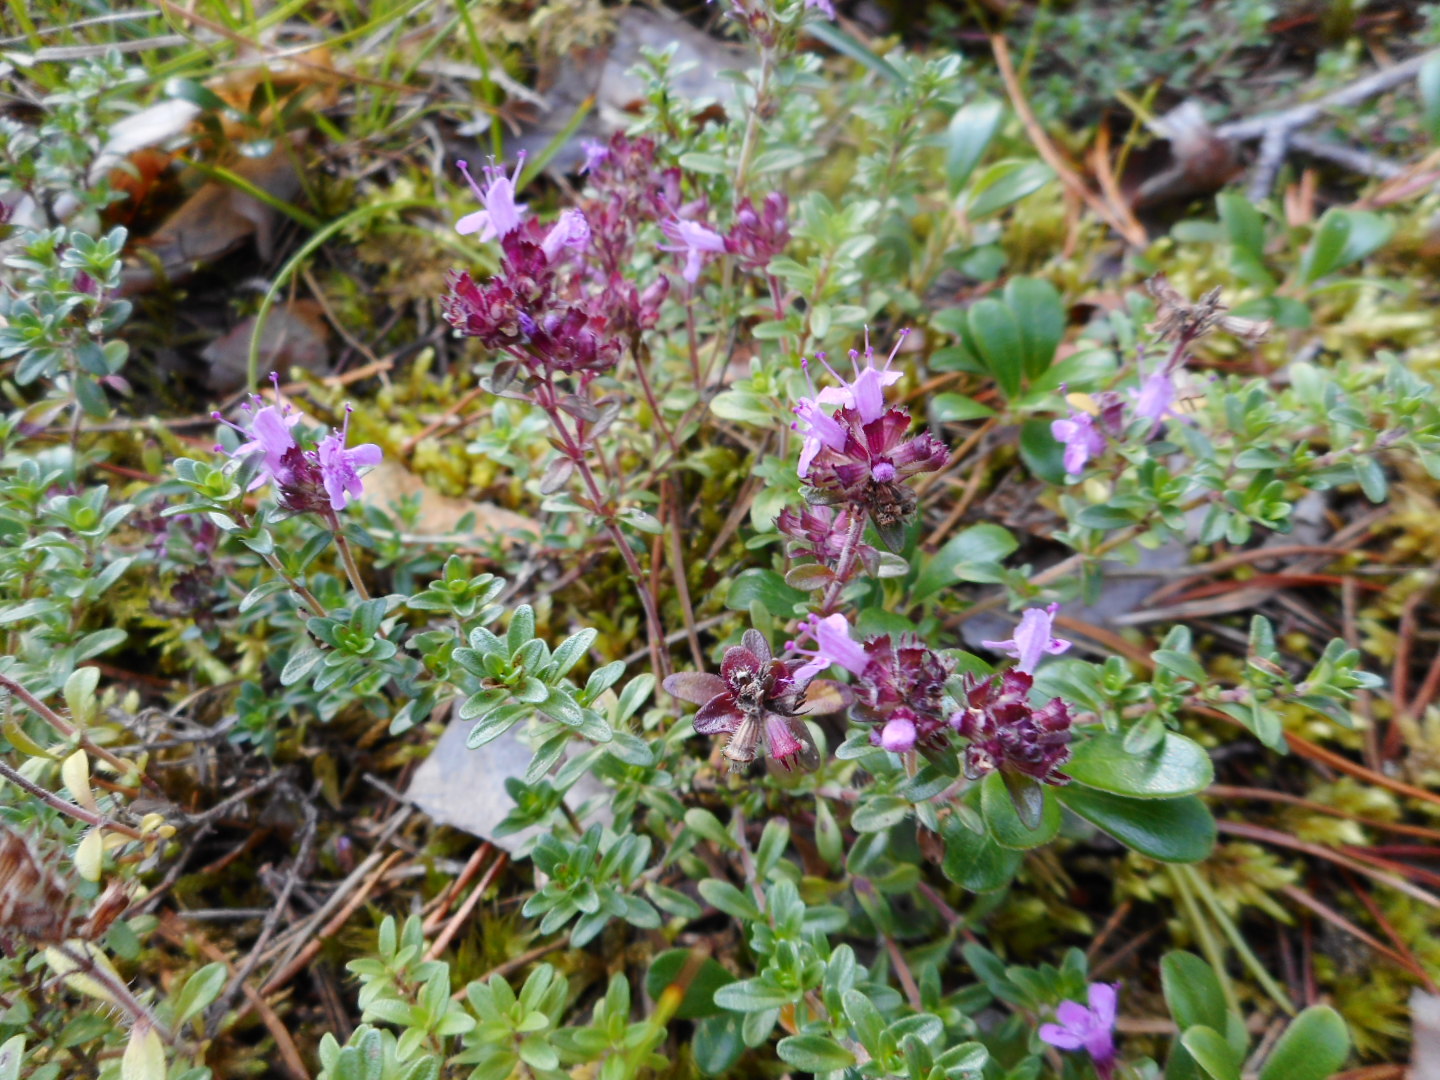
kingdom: Plantae
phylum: Tracheophyta
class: Magnoliopsida
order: Lamiales
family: Lamiaceae
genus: Thymus
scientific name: Thymus serpyllum
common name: Breckland thyme
